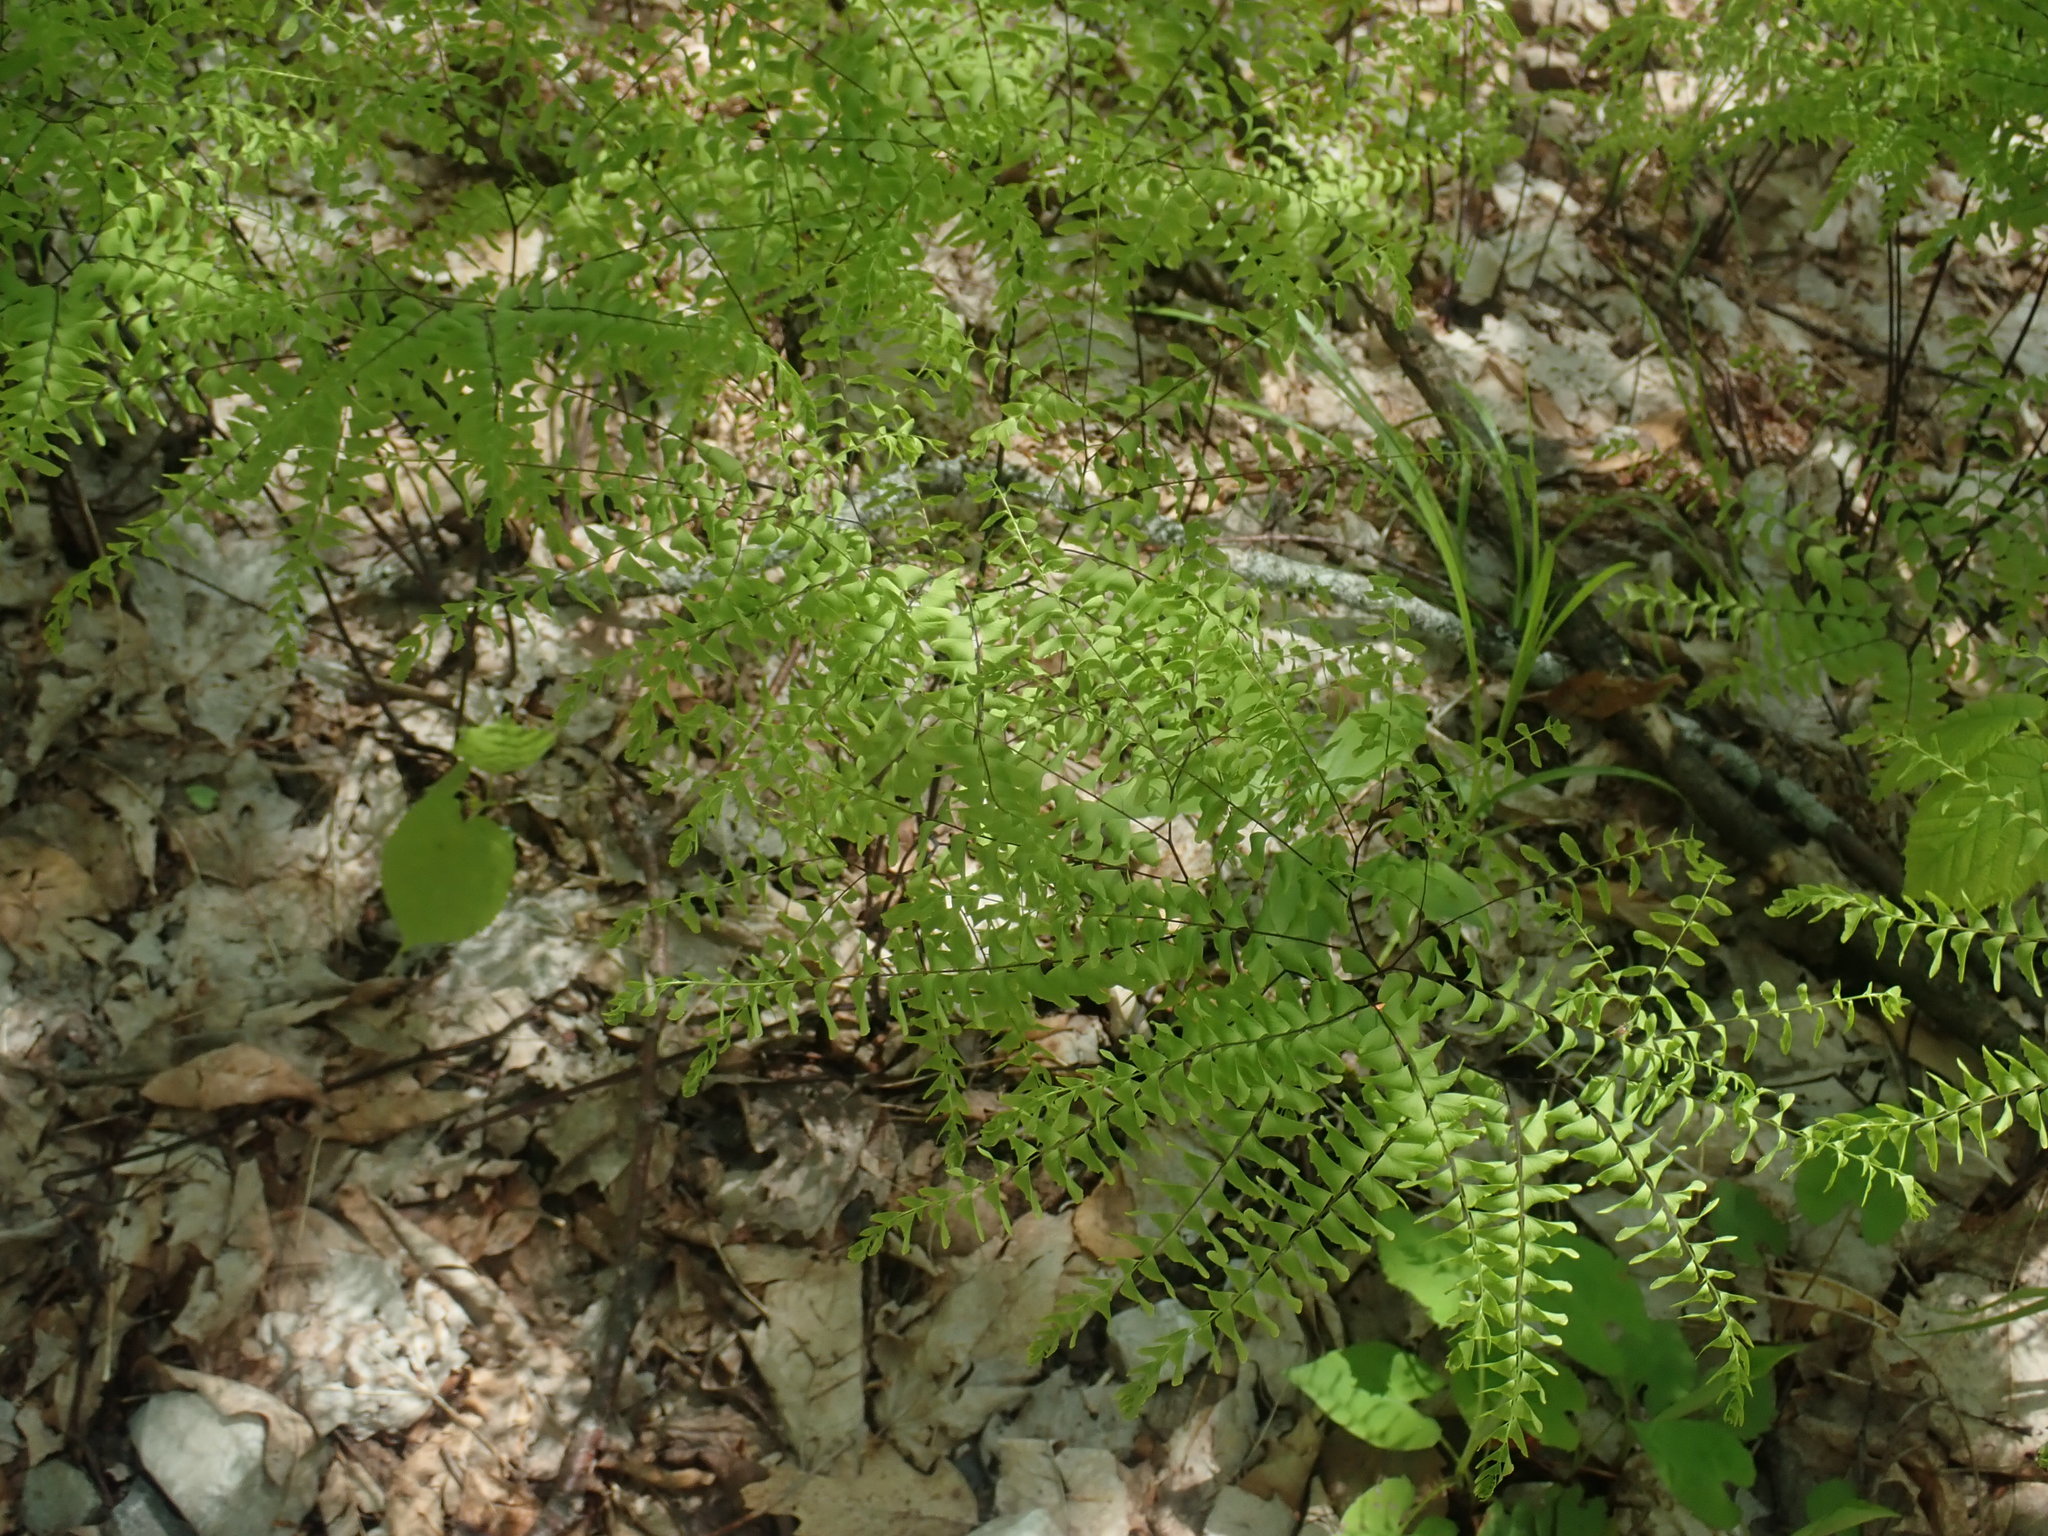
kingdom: Plantae
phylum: Tracheophyta
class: Polypodiopsida
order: Polypodiales
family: Pteridaceae
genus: Adiantum
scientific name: Adiantum pedatum
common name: Five-finger fern
